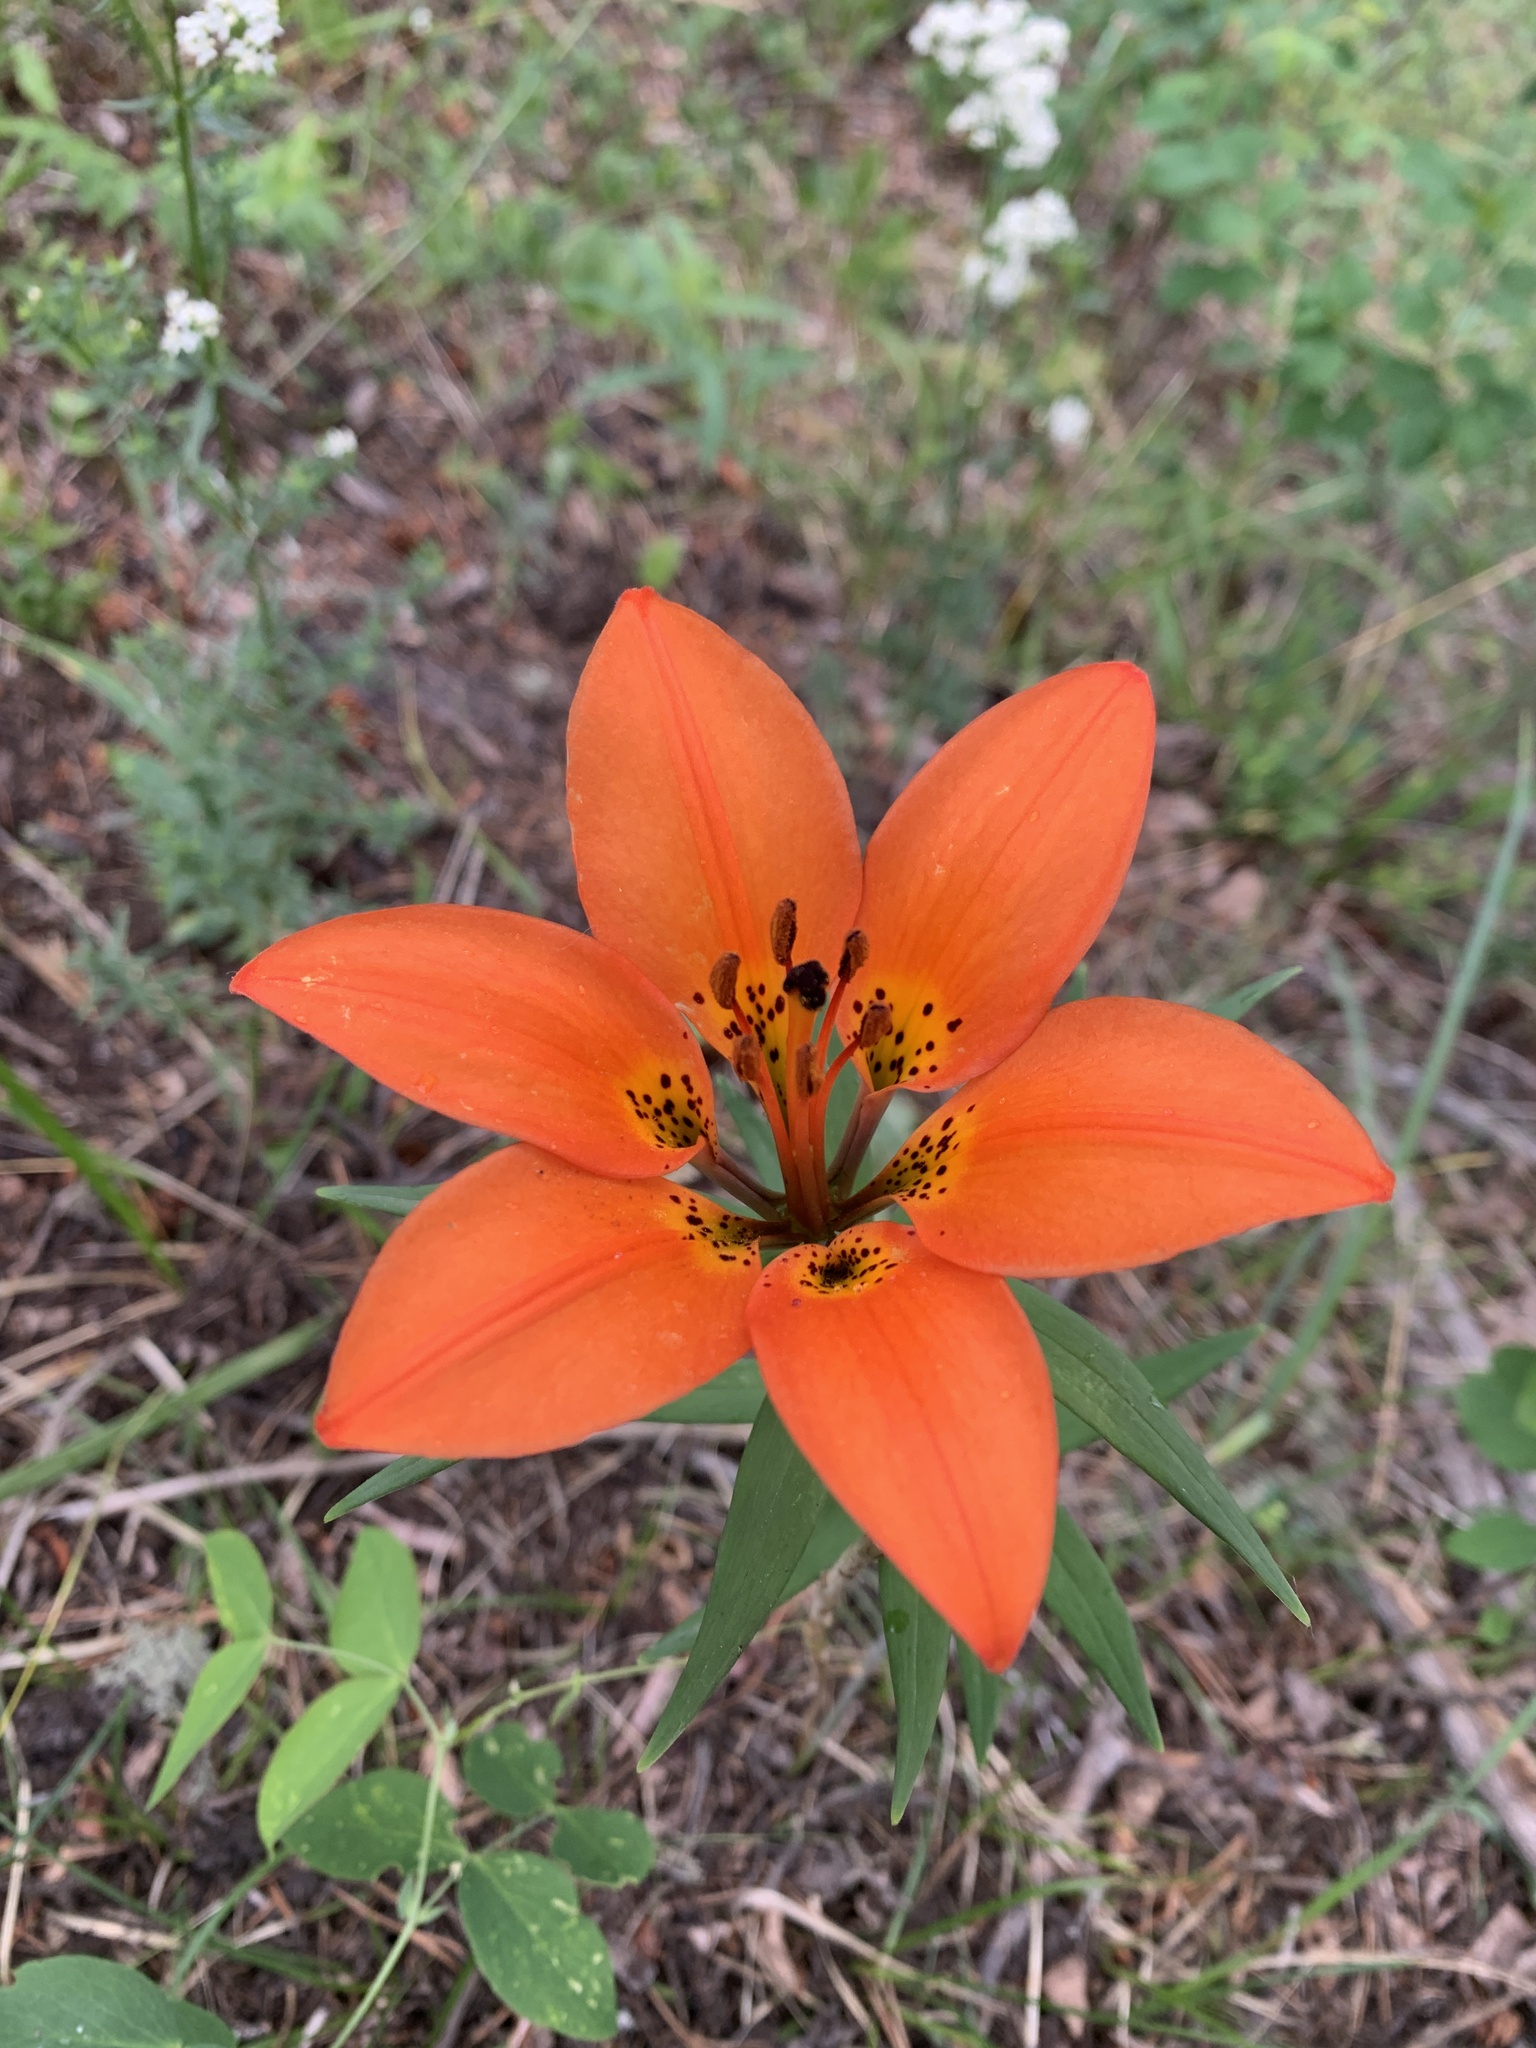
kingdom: Plantae
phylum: Tracheophyta
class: Liliopsida
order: Liliales
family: Liliaceae
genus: Lilium
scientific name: Lilium philadelphicum
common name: Red lily
